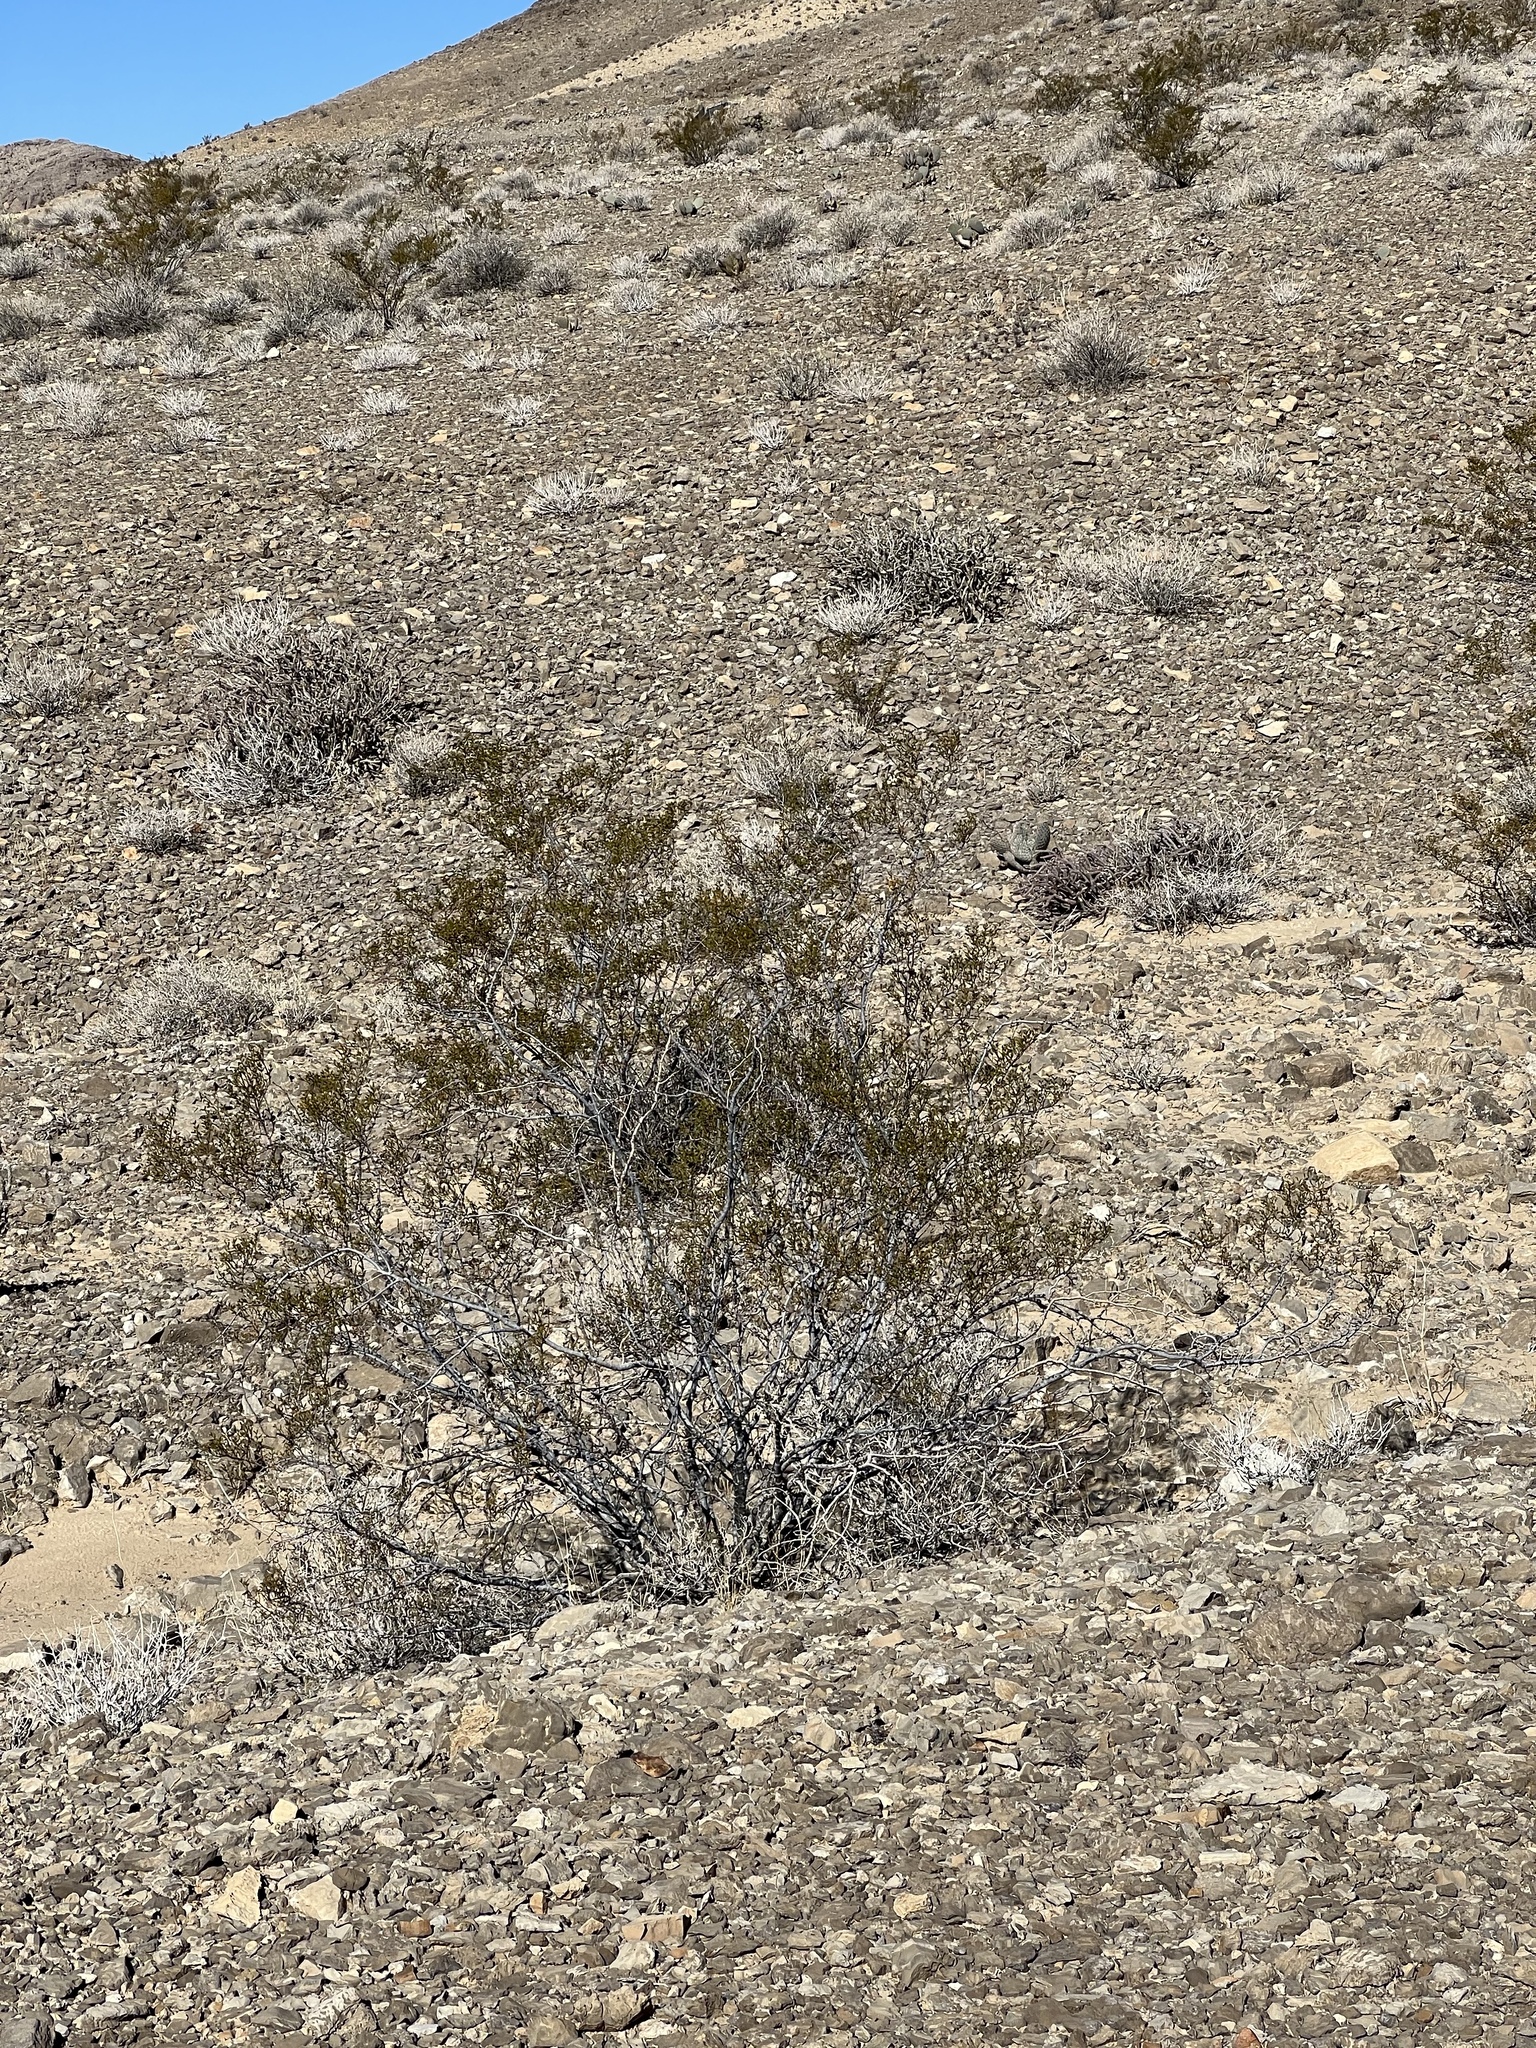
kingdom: Plantae
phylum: Tracheophyta
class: Magnoliopsida
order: Zygophyllales
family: Zygophyllaceae
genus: Larrea
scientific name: Larrea tridentata
